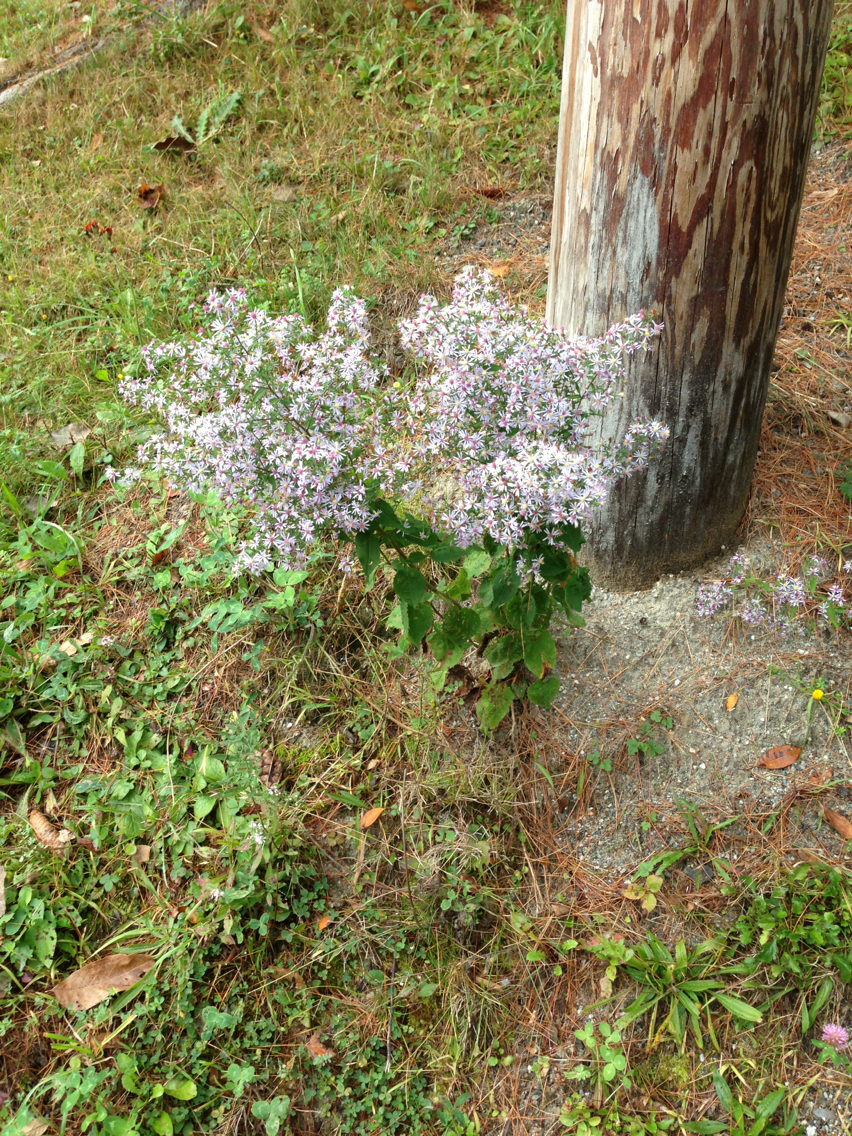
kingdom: Plantae
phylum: Tracheophyta
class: Magnoliopsida
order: Asterales
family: Asteraceae
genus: Symphyotrichum
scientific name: Symphyotrichum cordifolium
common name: Beeweed
